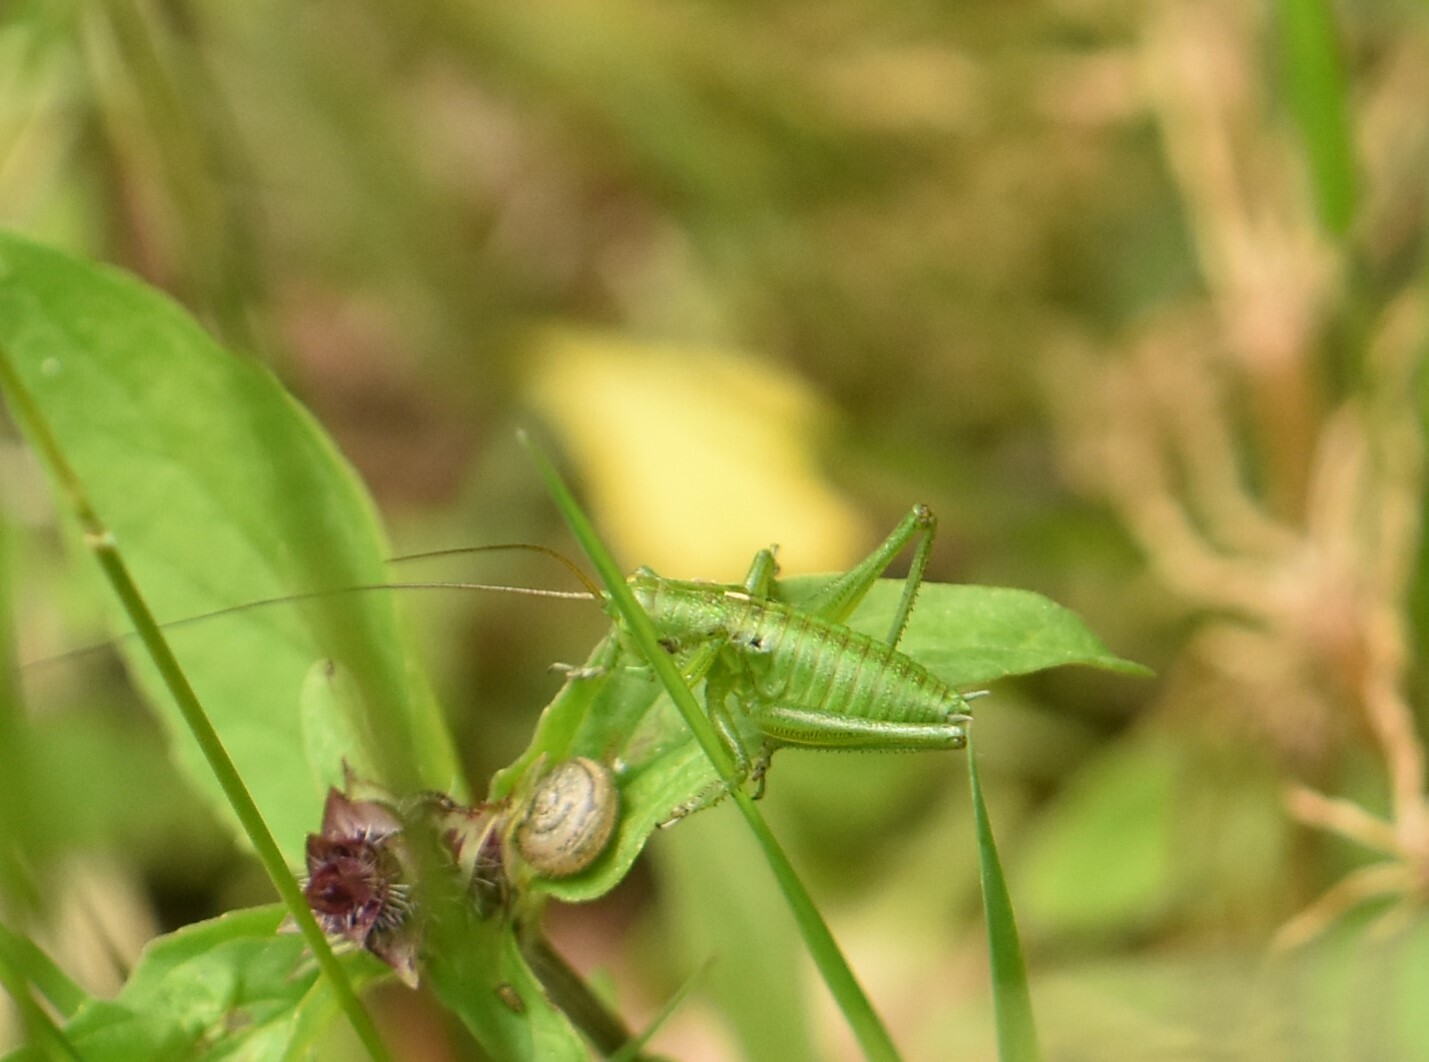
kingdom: Animalia
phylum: Arthropoda
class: Insecta
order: Orthoptera
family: Tettigoniidae
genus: Tettigonia
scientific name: Tettigonia cantans
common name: Upland green bush-cricket
